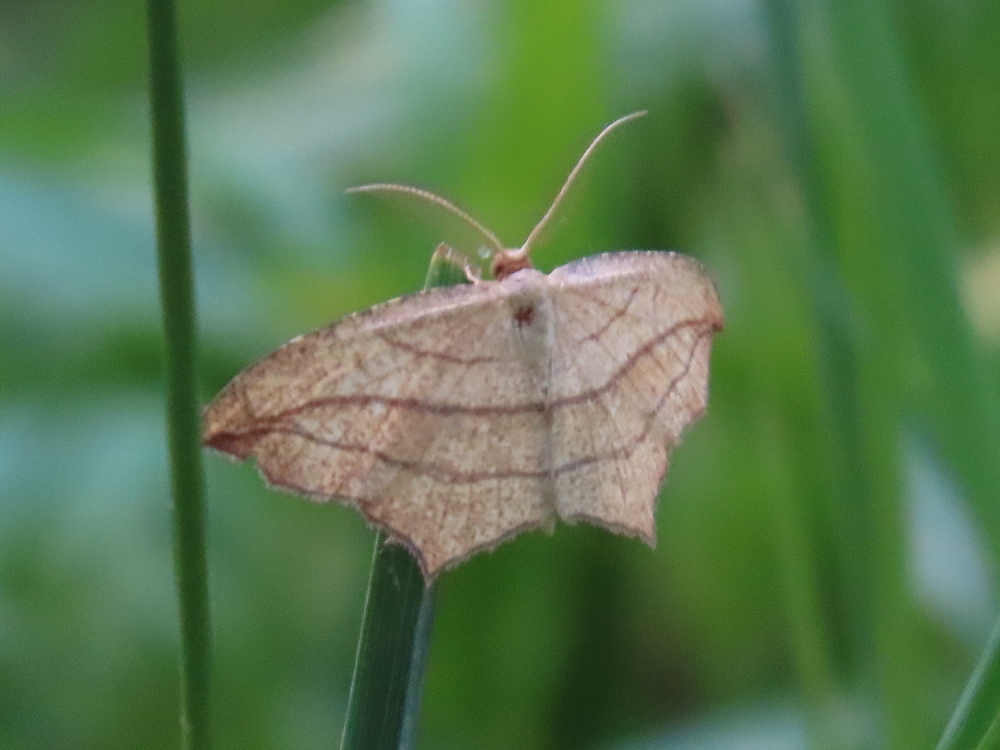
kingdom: Animalia
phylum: Arthropoda
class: Insecta
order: Lepidoptera
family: Geometridae
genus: Timandra
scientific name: Timandra amaturaria
